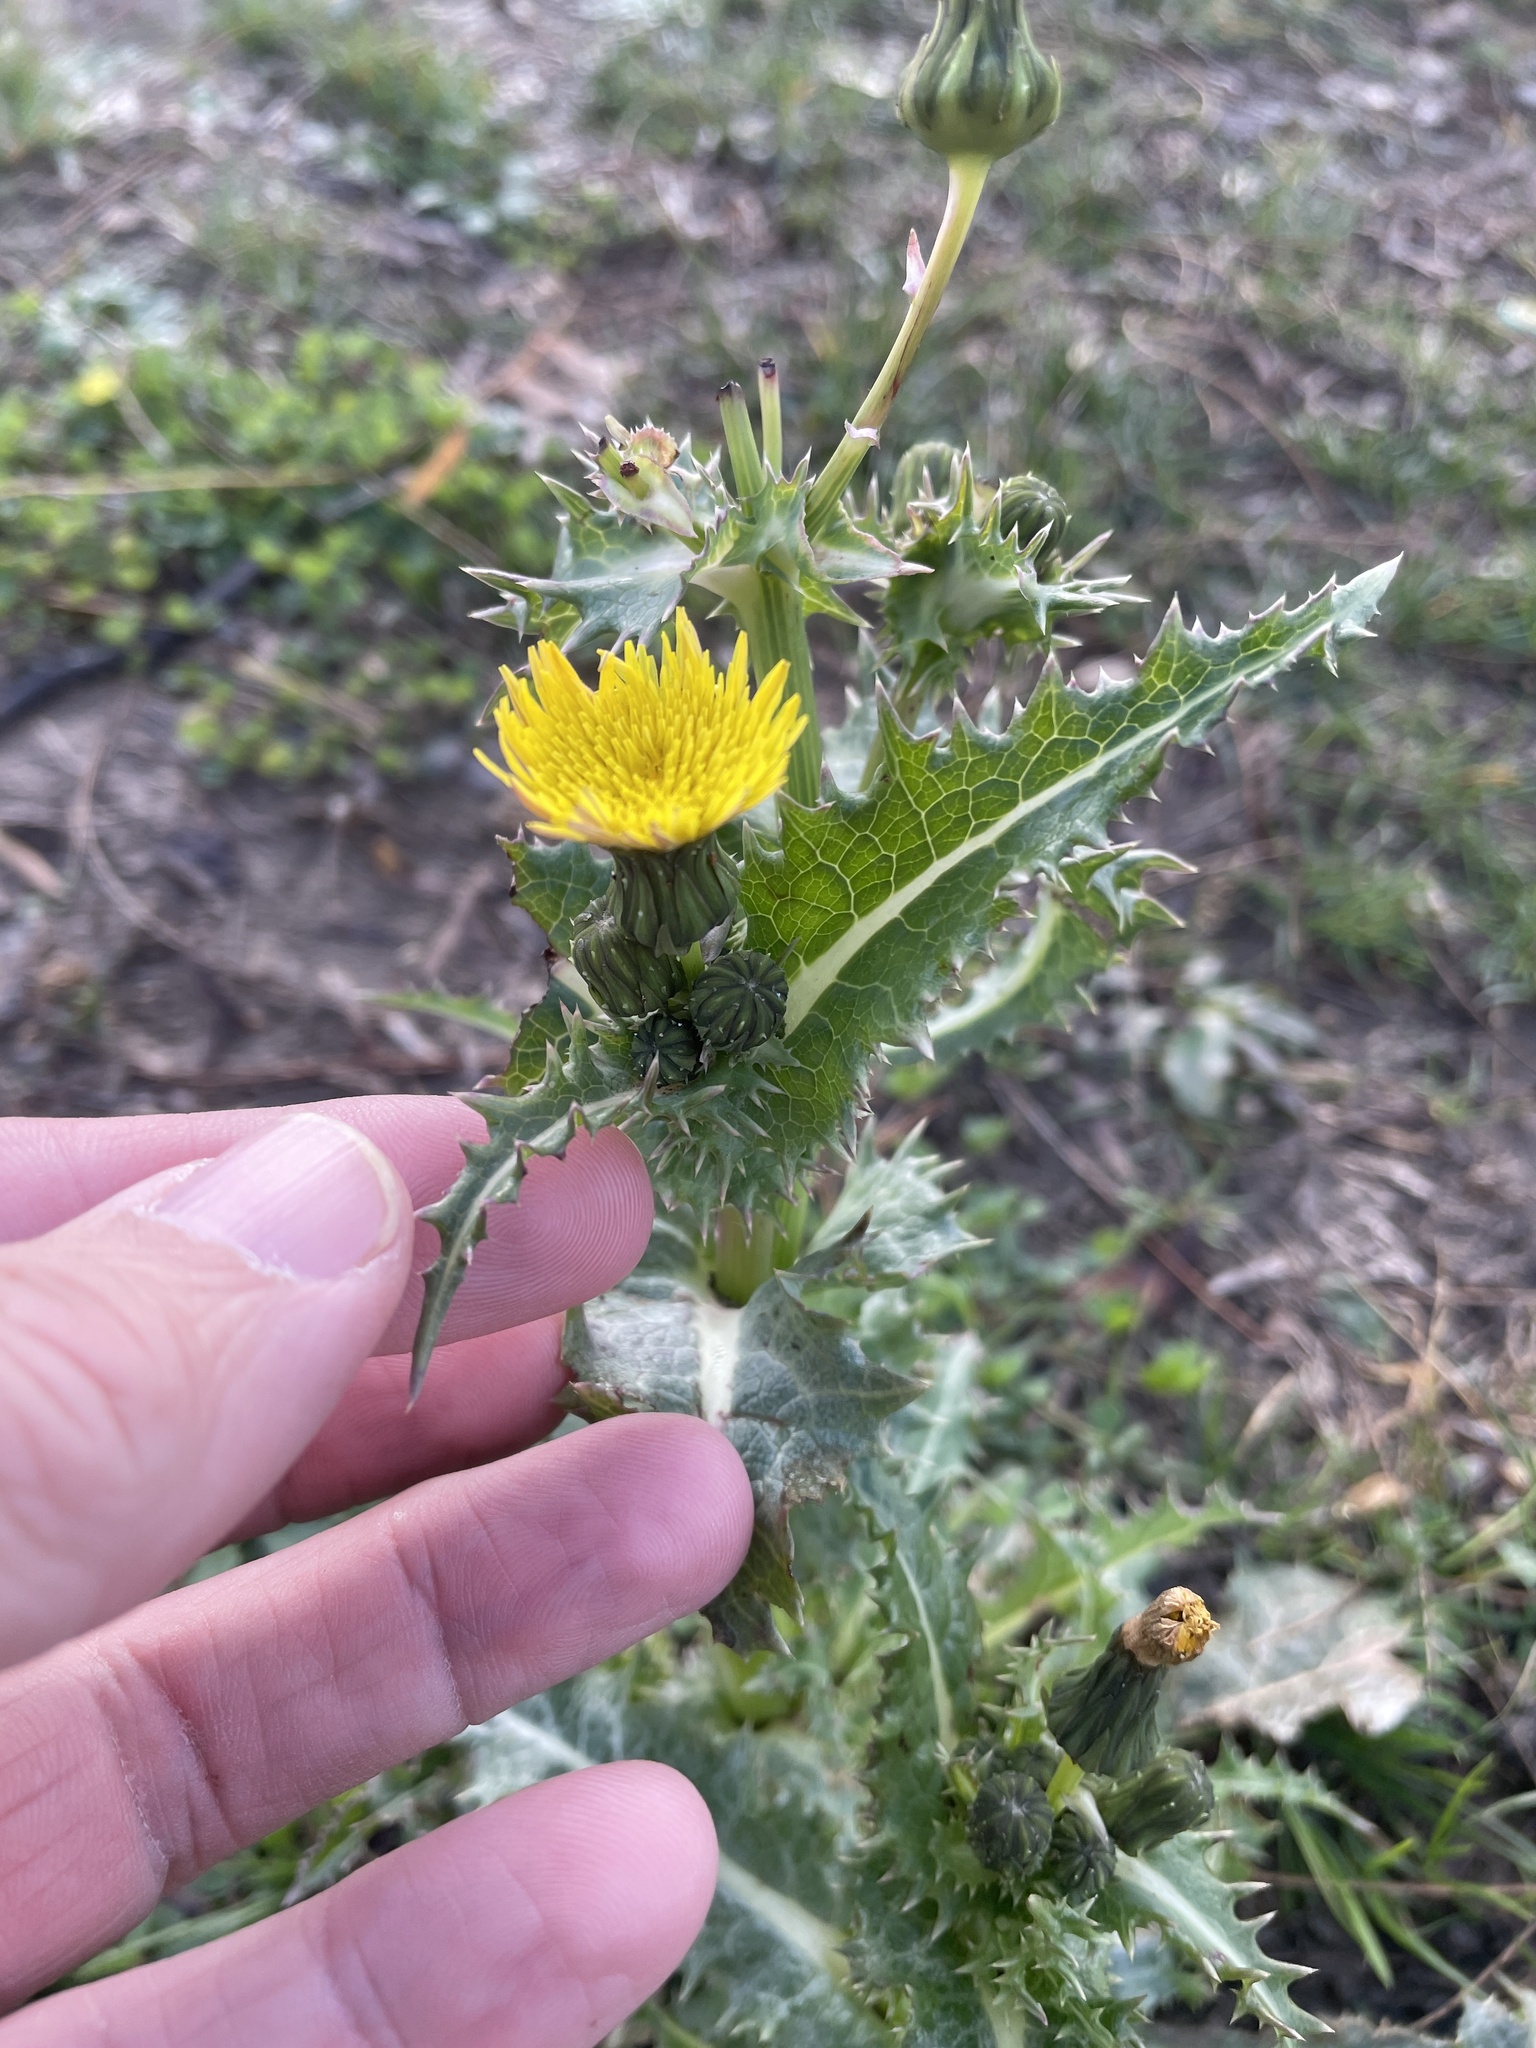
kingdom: Plantae
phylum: Tracheophyta
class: Magnoliopsida
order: Asterales
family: Asteraceae
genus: Sonchus
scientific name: Sonchus asper
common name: Prickly sow-thistle
